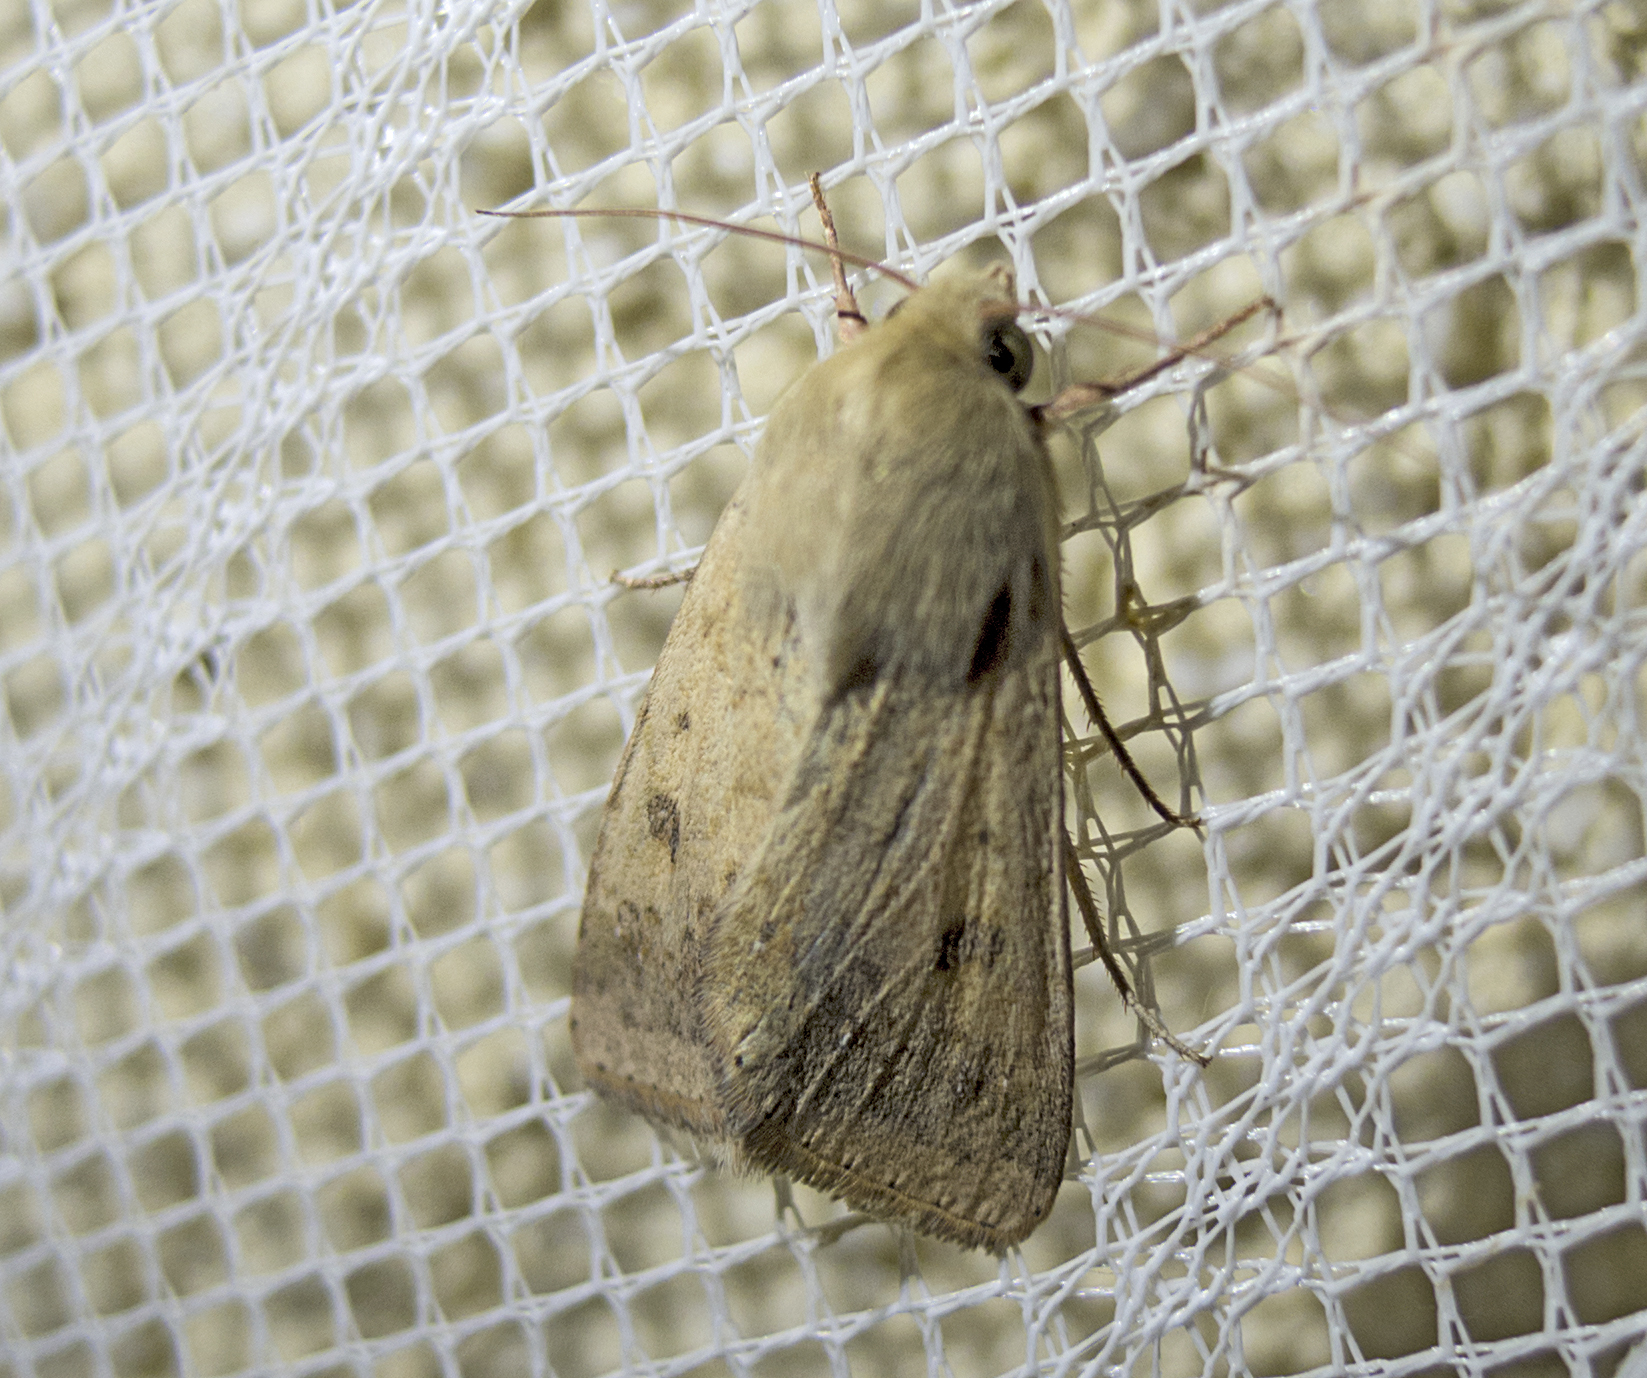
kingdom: Animalia
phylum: Arthropoda
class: Insecta
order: Lepidoptera
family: Noctuidae
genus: Helicoverpa
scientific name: Helicoverpa armigera
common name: Cotton bollworm
